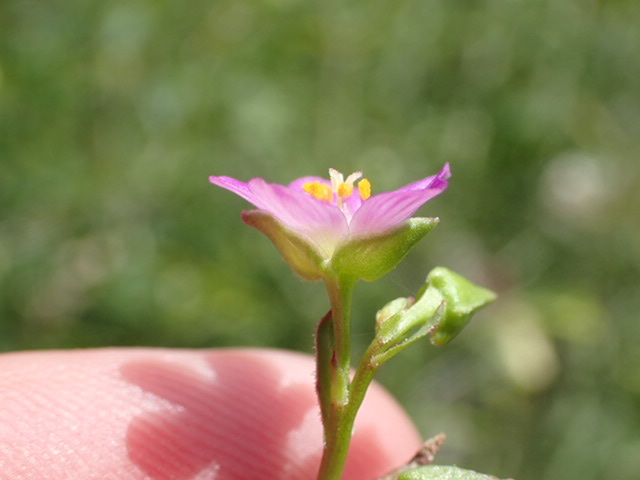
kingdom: Plantae
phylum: Tracheophyta
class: Magnoliopsida
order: Caryophyllales
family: Montiaceae
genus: Calandrinia
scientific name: Calandrinia breweri
